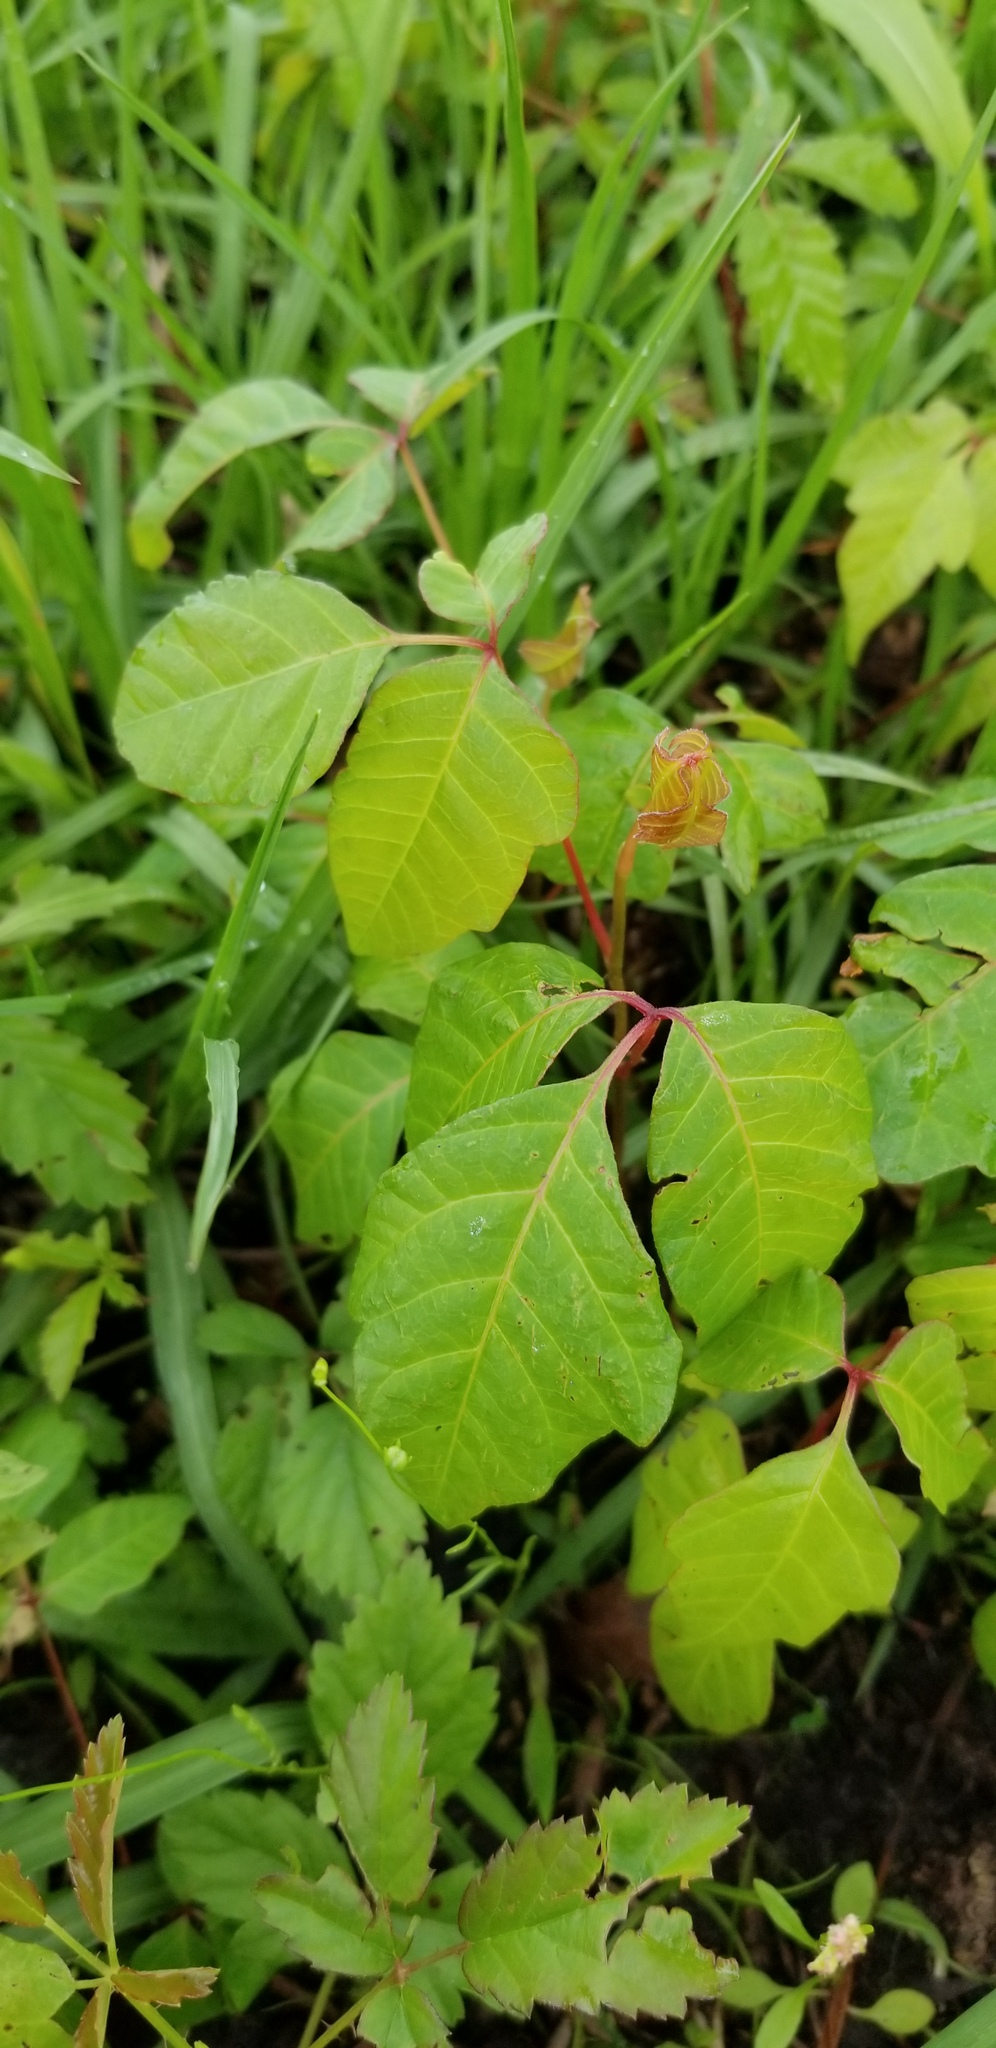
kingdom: Plantae
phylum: Tracheophyta
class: Magnoliopsida
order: Sapindales
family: Anacardiaceae
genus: Toxicodendron
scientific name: Toxicodendron radicans
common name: Poison ivy
